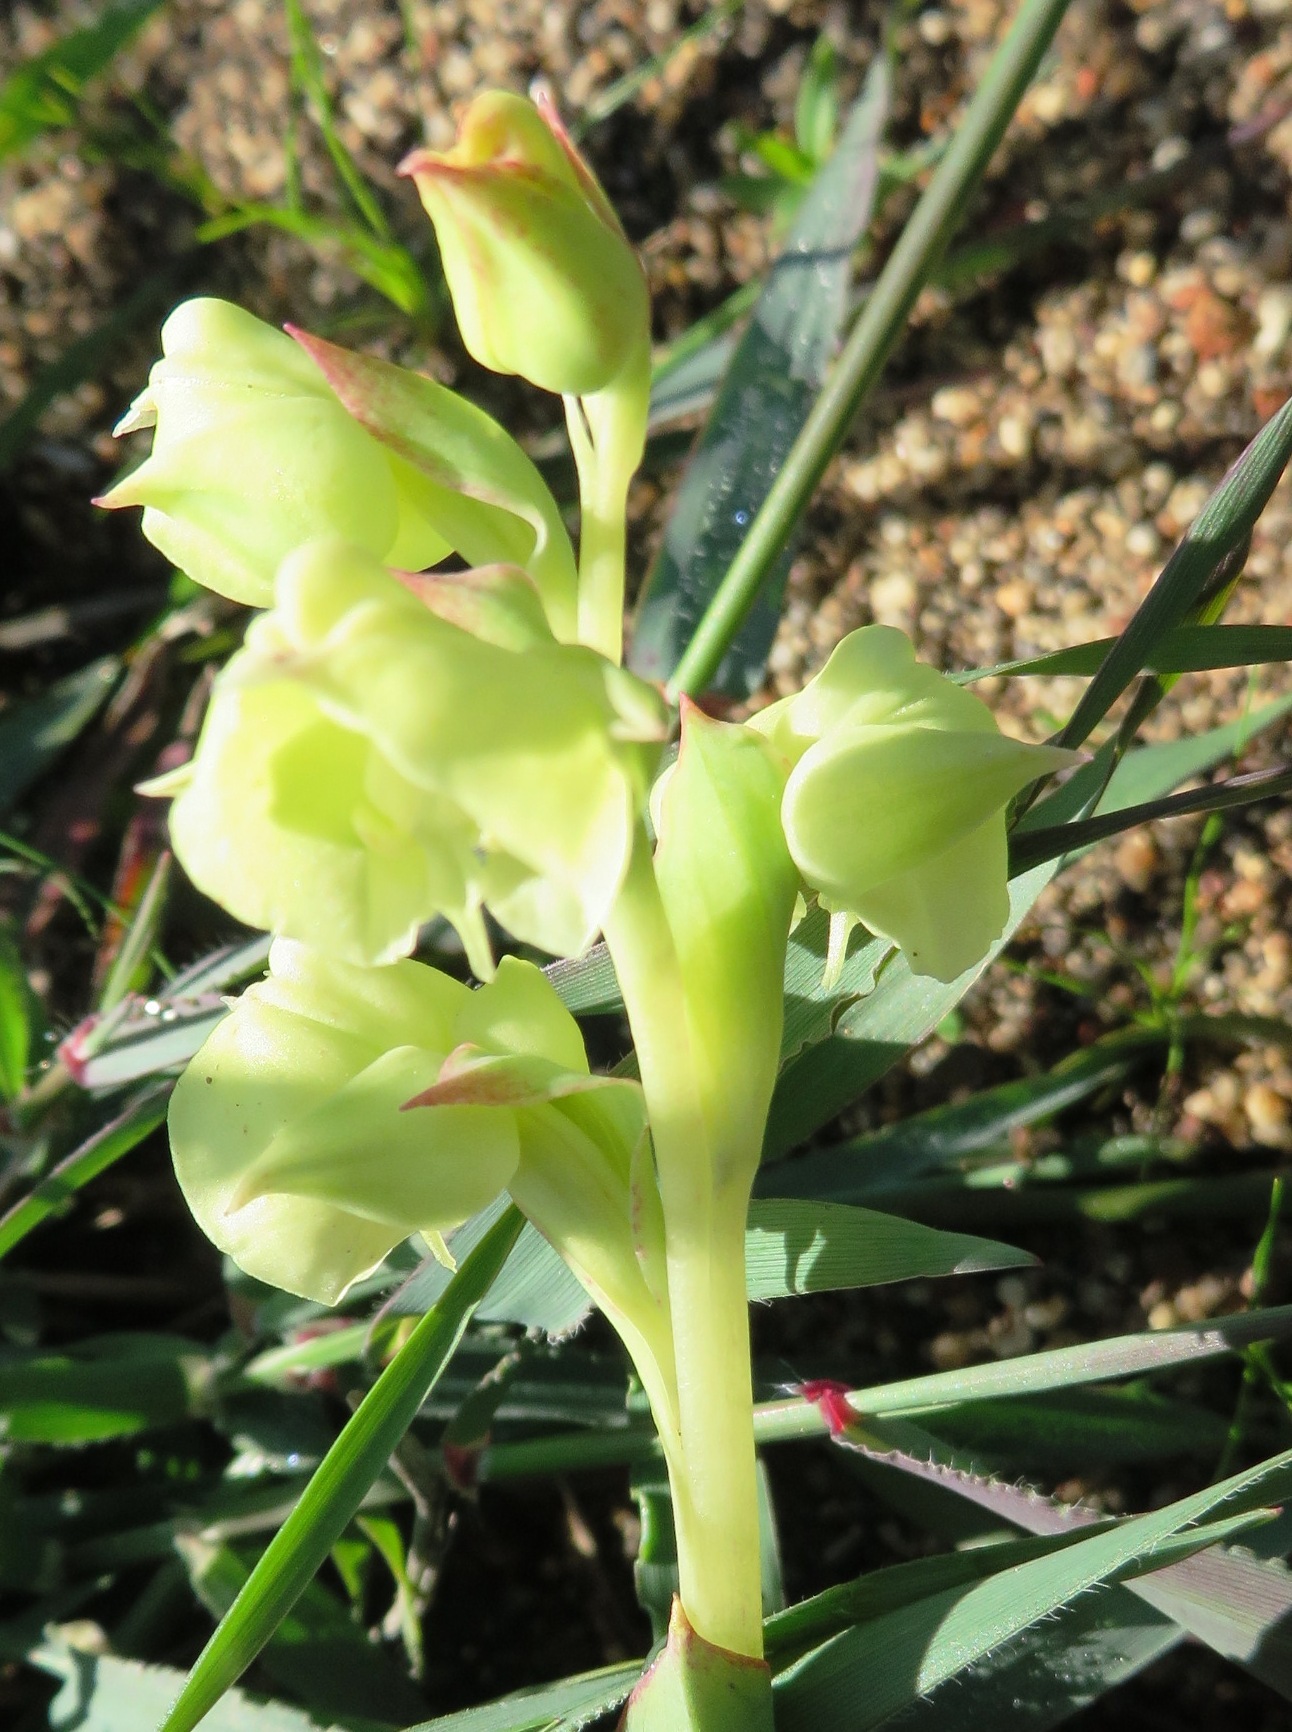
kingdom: Plantae
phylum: Tracheophyta
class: Liliopsida
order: Asparagales
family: Orchidaceae
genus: Pterygodium
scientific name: Pterygodium catholicum
